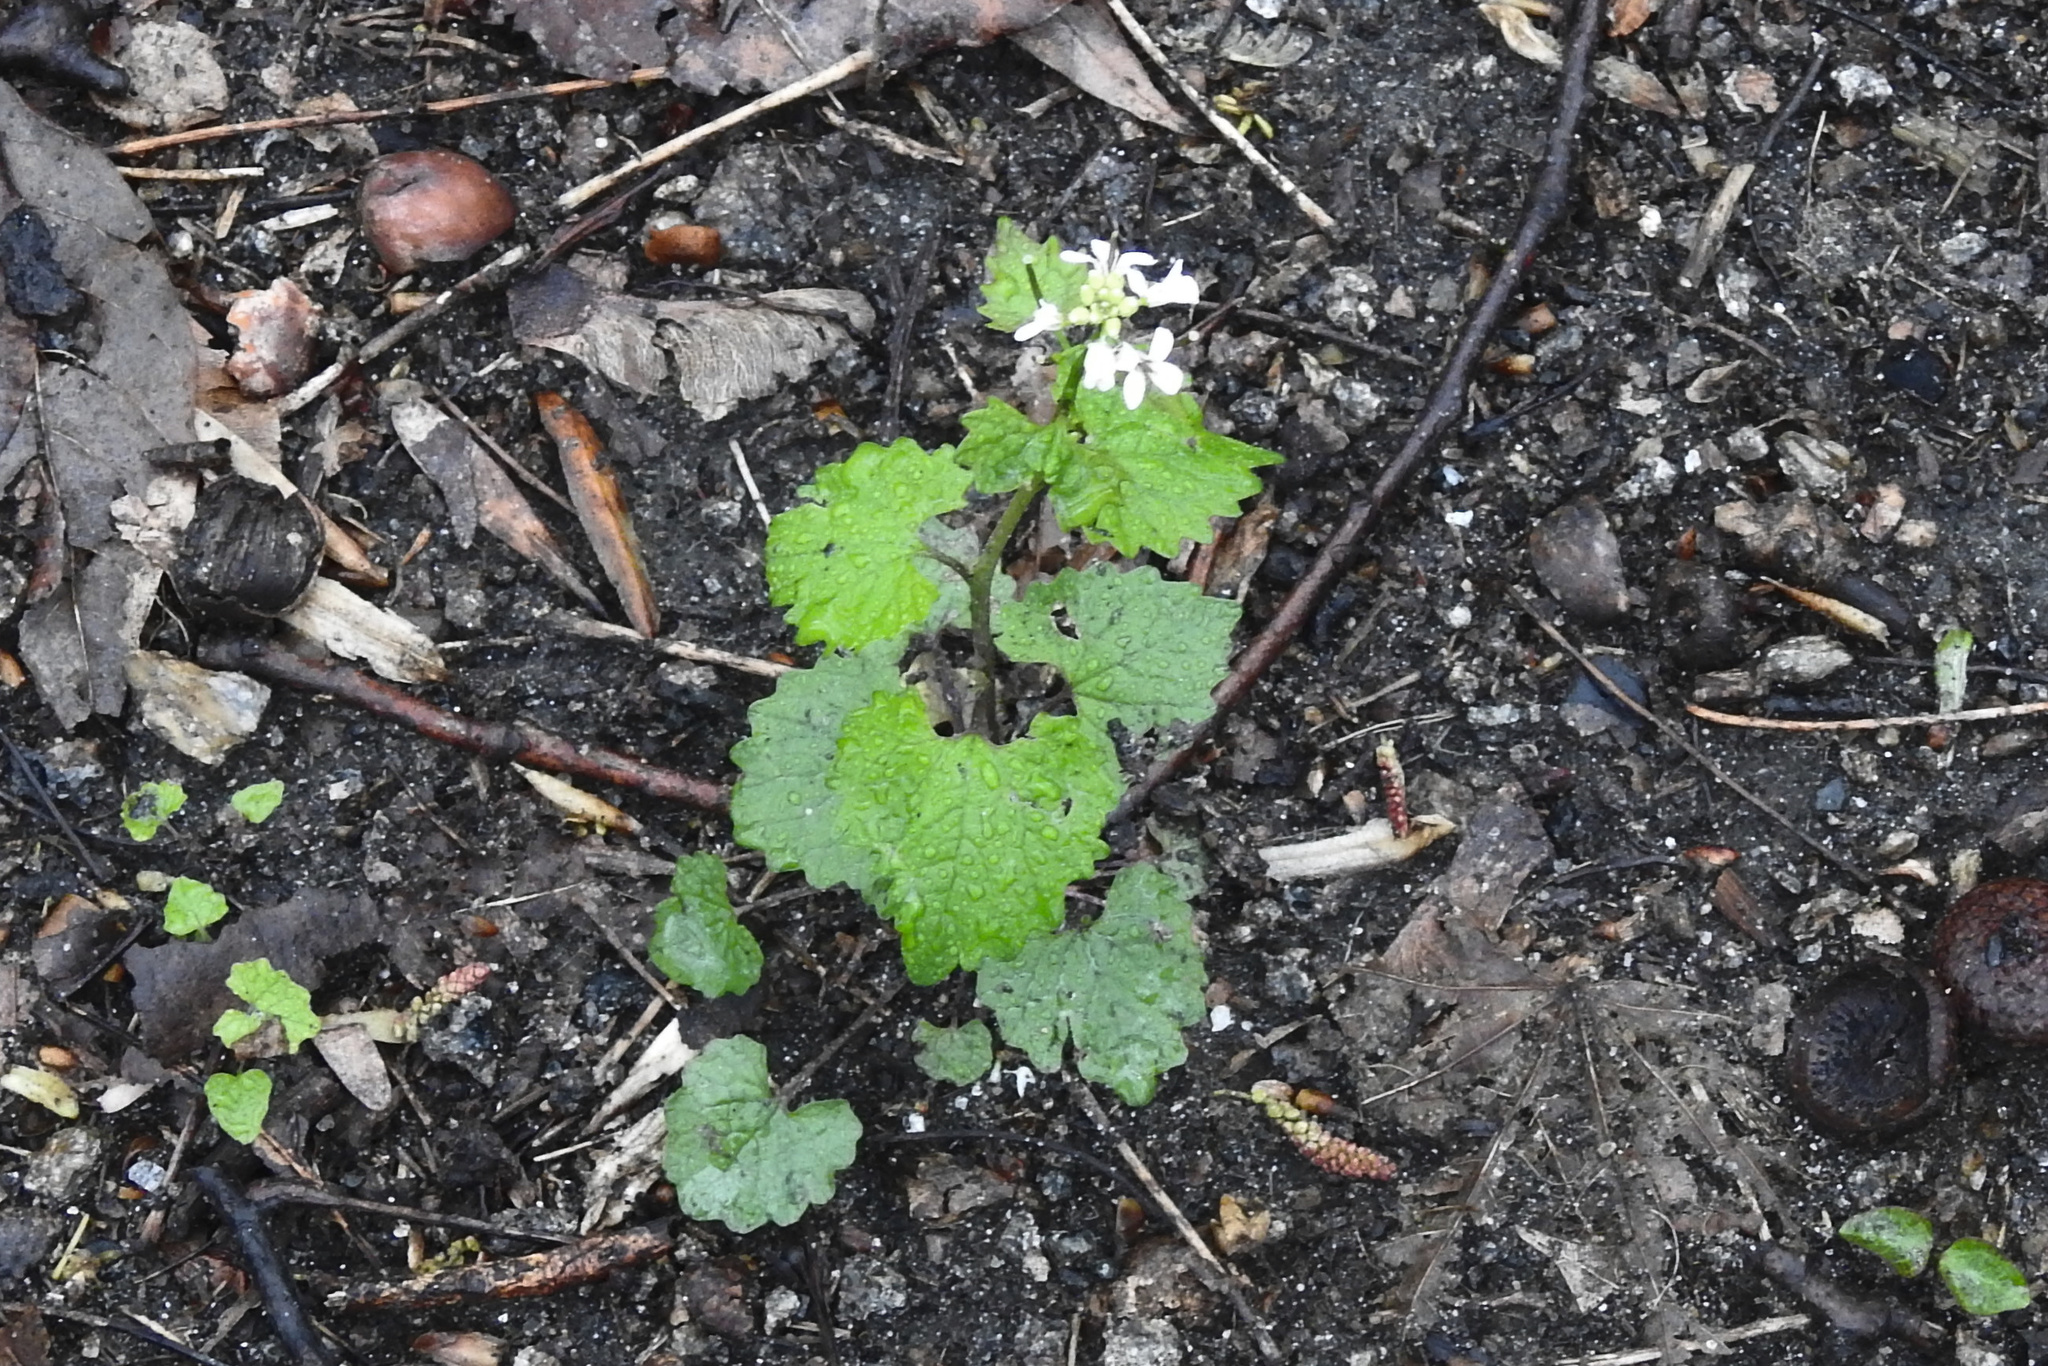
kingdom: Plantae
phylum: Tracheophyta
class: Magnoliopsida
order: Brassicales
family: Brassicaceae
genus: Alliaria
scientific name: Alliaria petiolata
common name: Garlic mustard
